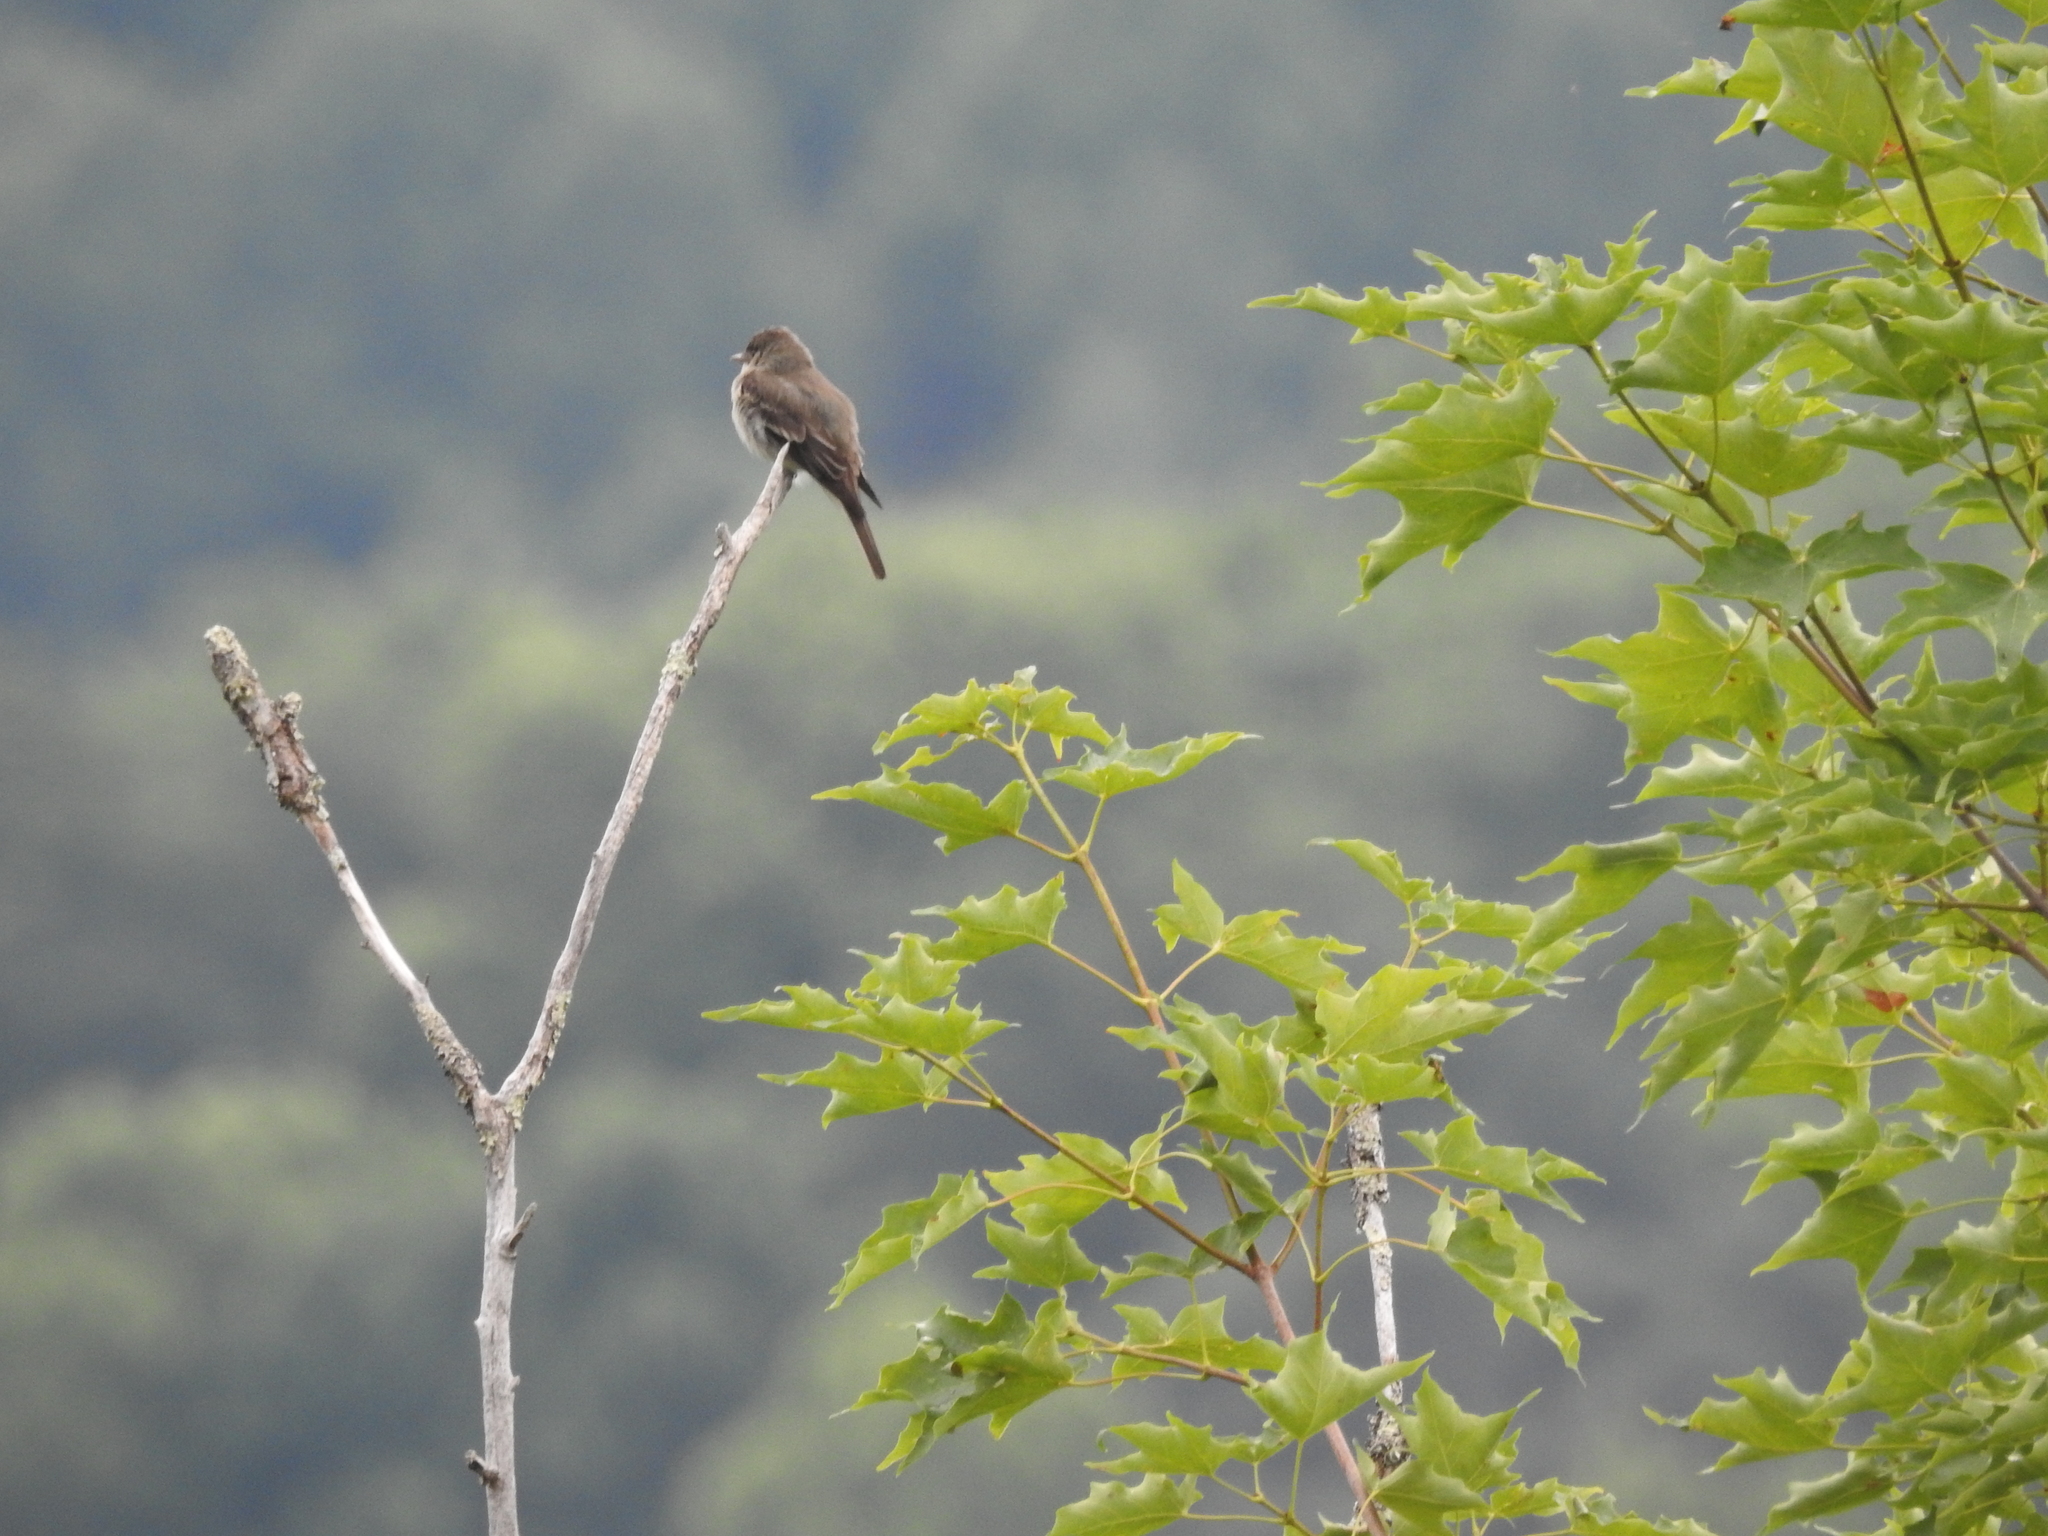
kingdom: Plantae
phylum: Tracheophyta
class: Magnoliopsida
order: Sapindales
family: Sapindaceae
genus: Acer
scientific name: Acer saccharum
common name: Sugar maple
